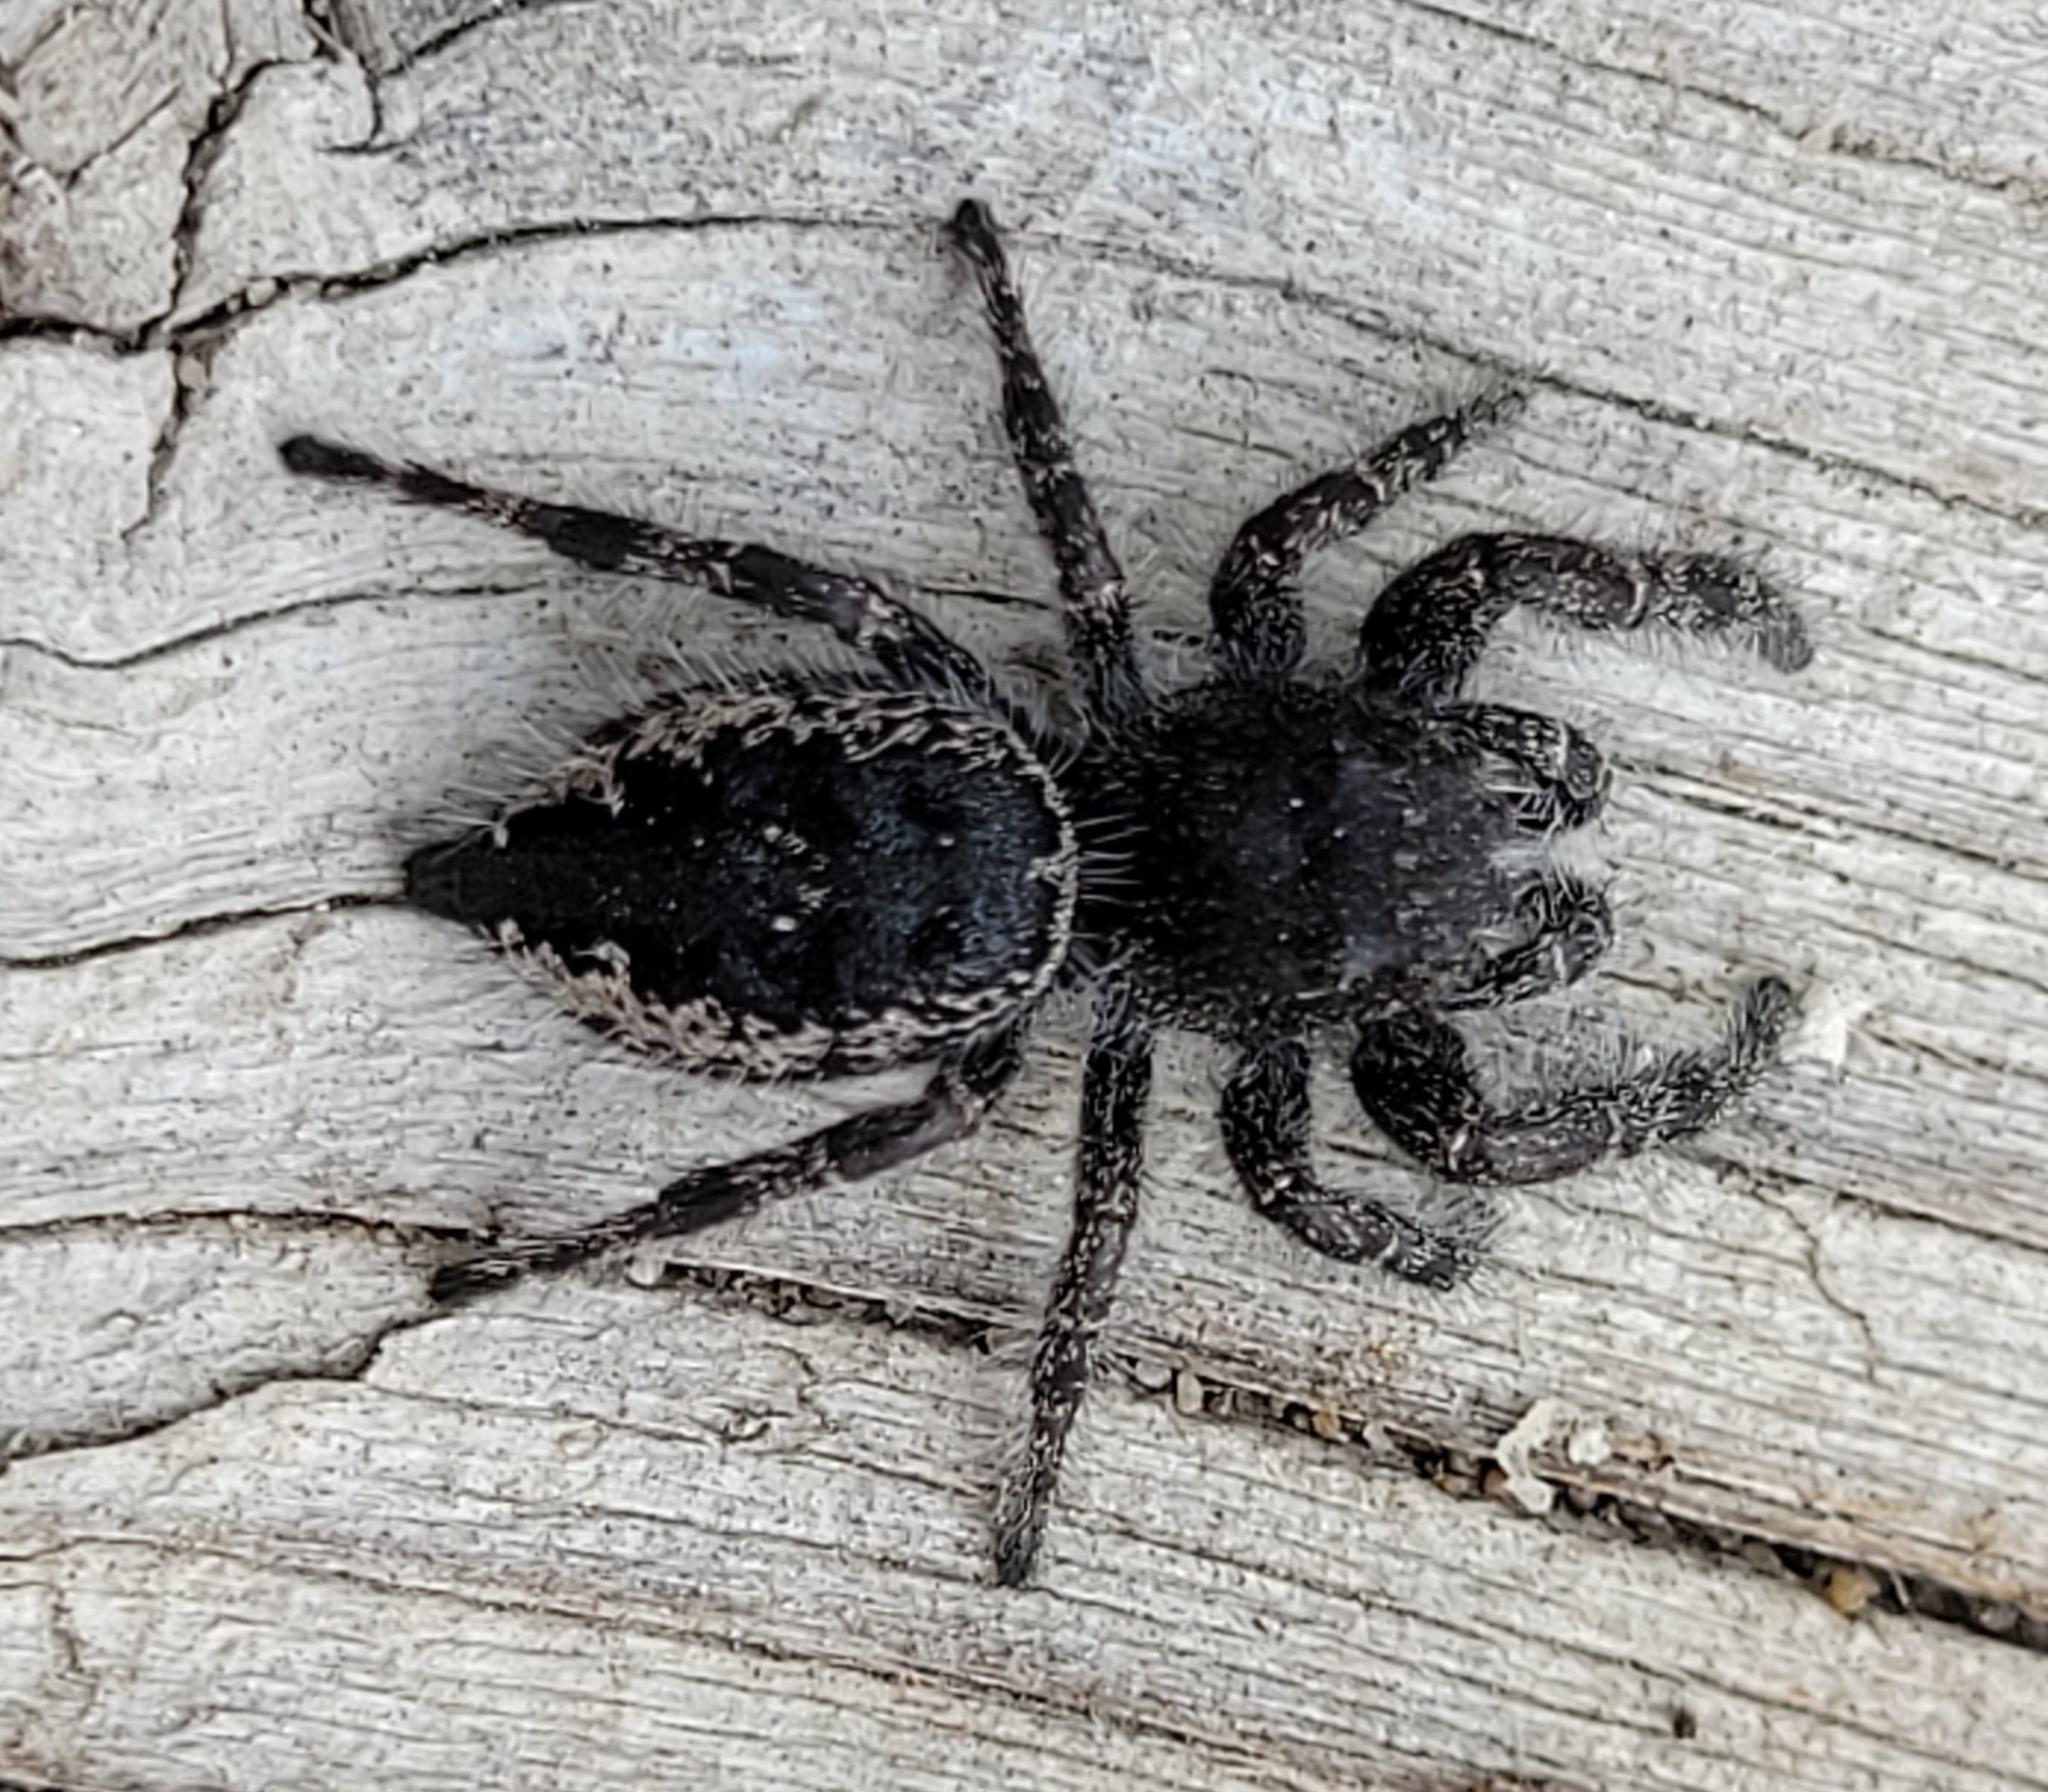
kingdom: Animalia
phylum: Arthropoda
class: Arachnida
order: Araneae
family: Salticidae
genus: Phidippus
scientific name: Phidippus borealis
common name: Boreal tufted jumping spider
